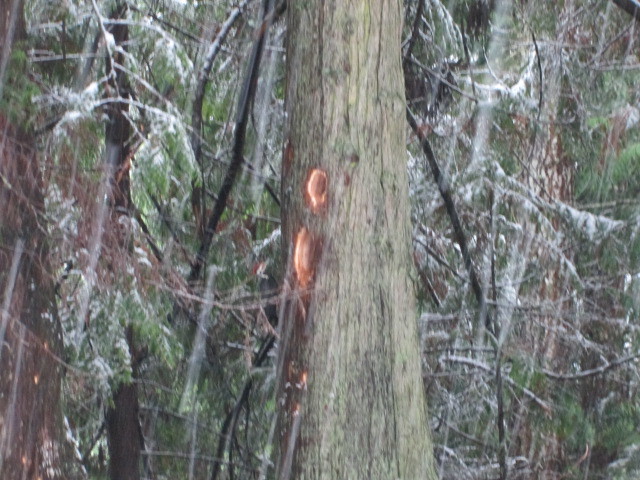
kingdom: Animalia
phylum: Chordata
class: Aves
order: Piciformes
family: Picidae
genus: Dryocopus
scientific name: Dryocopus pileatus
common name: Pileated woodpecker
